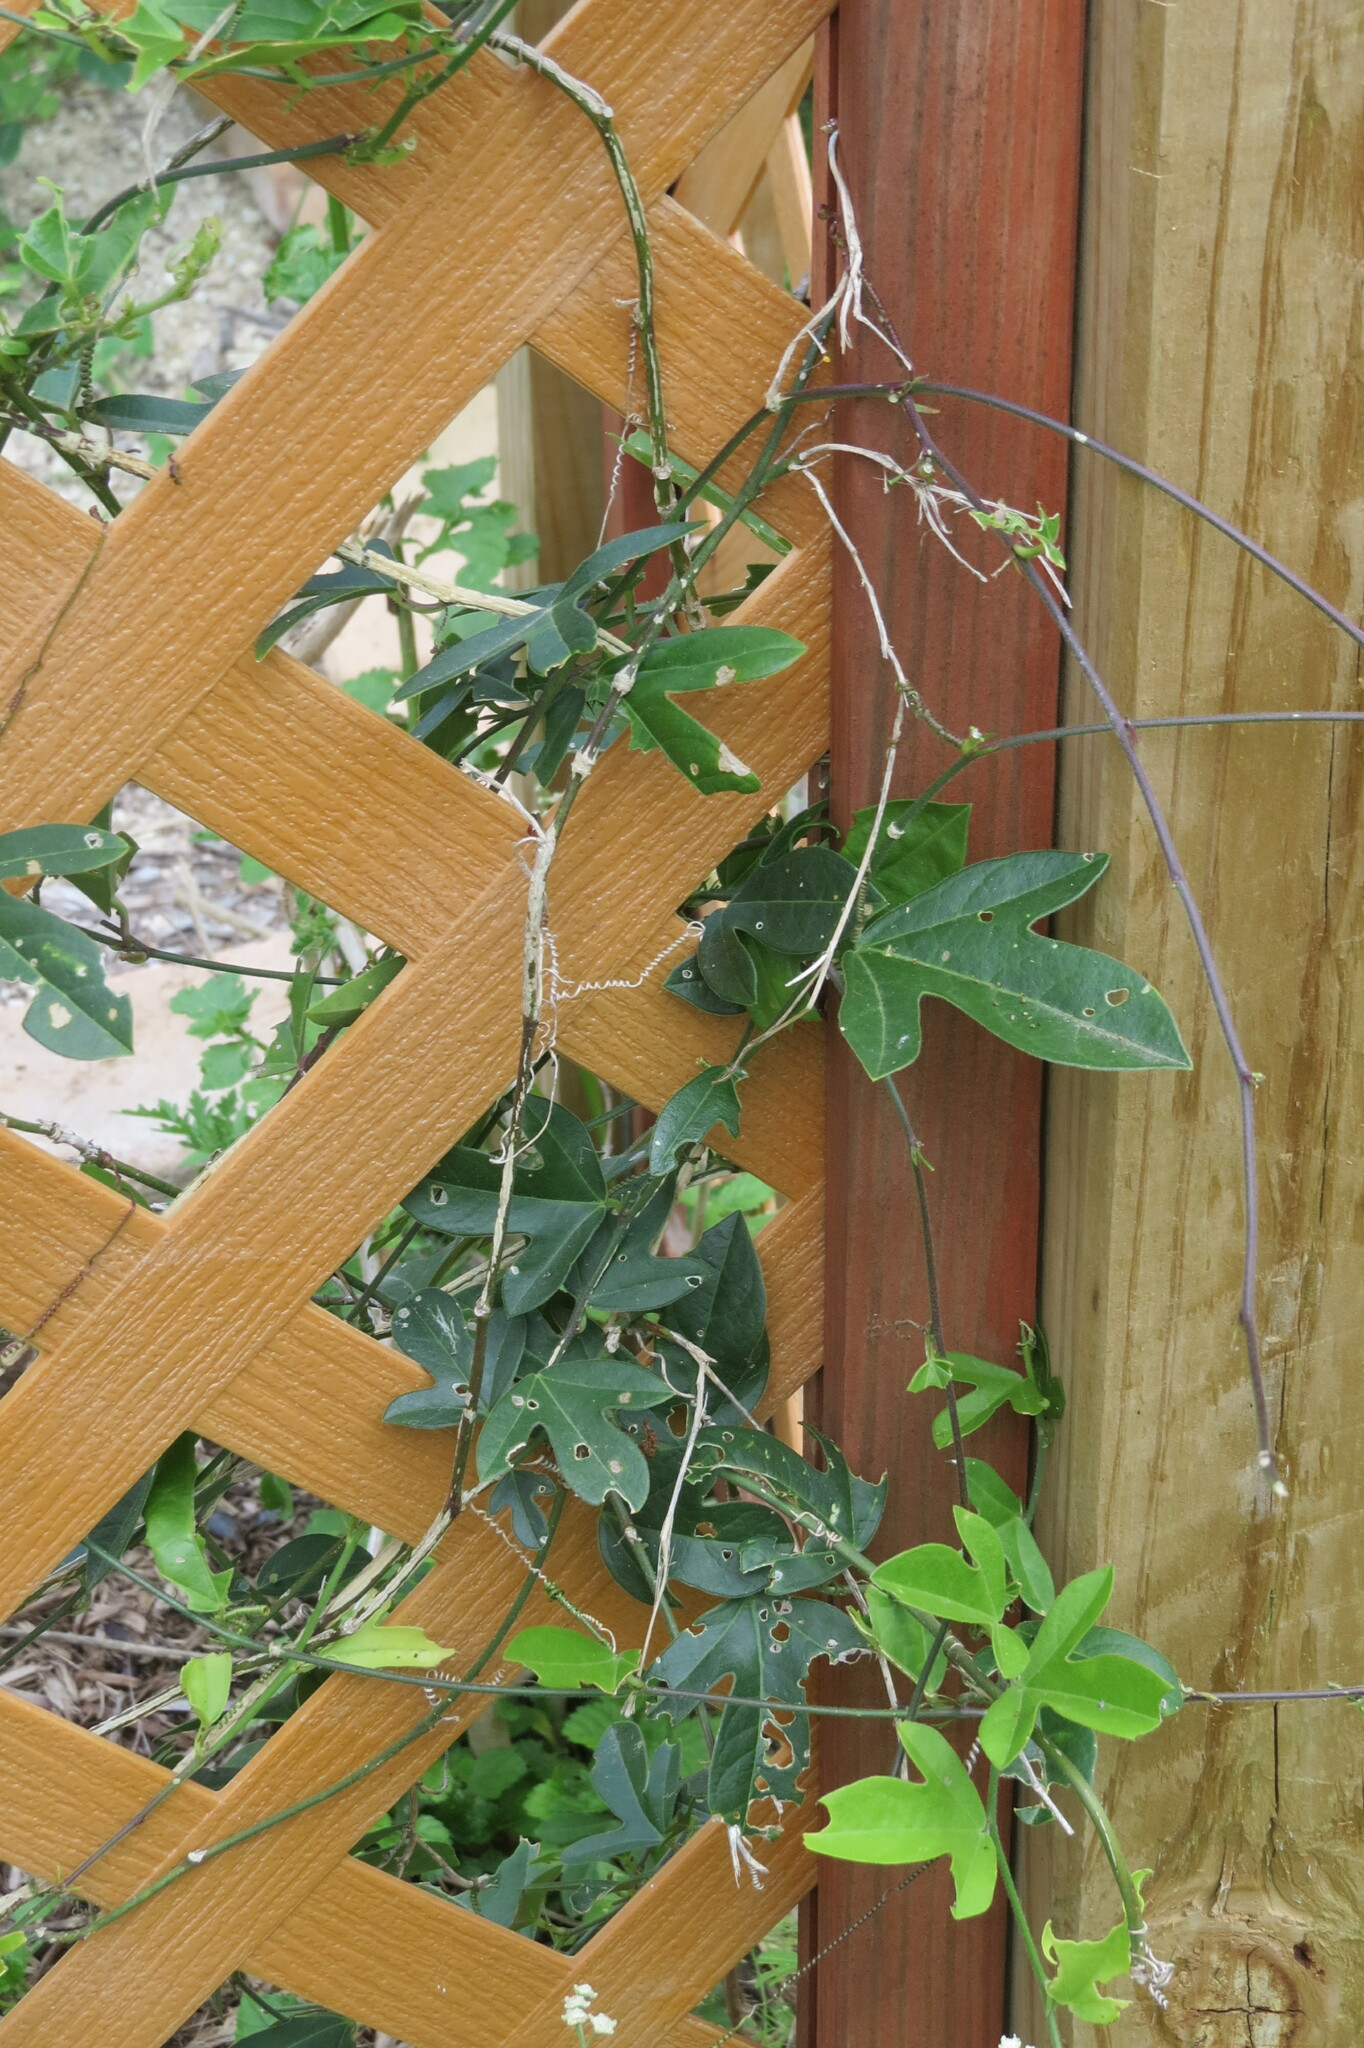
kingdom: Plantae
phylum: Tracheophyta
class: Magnoliopsida
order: Malpighiales
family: Passifloraceae
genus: Passiflora
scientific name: Passiflora pallida
